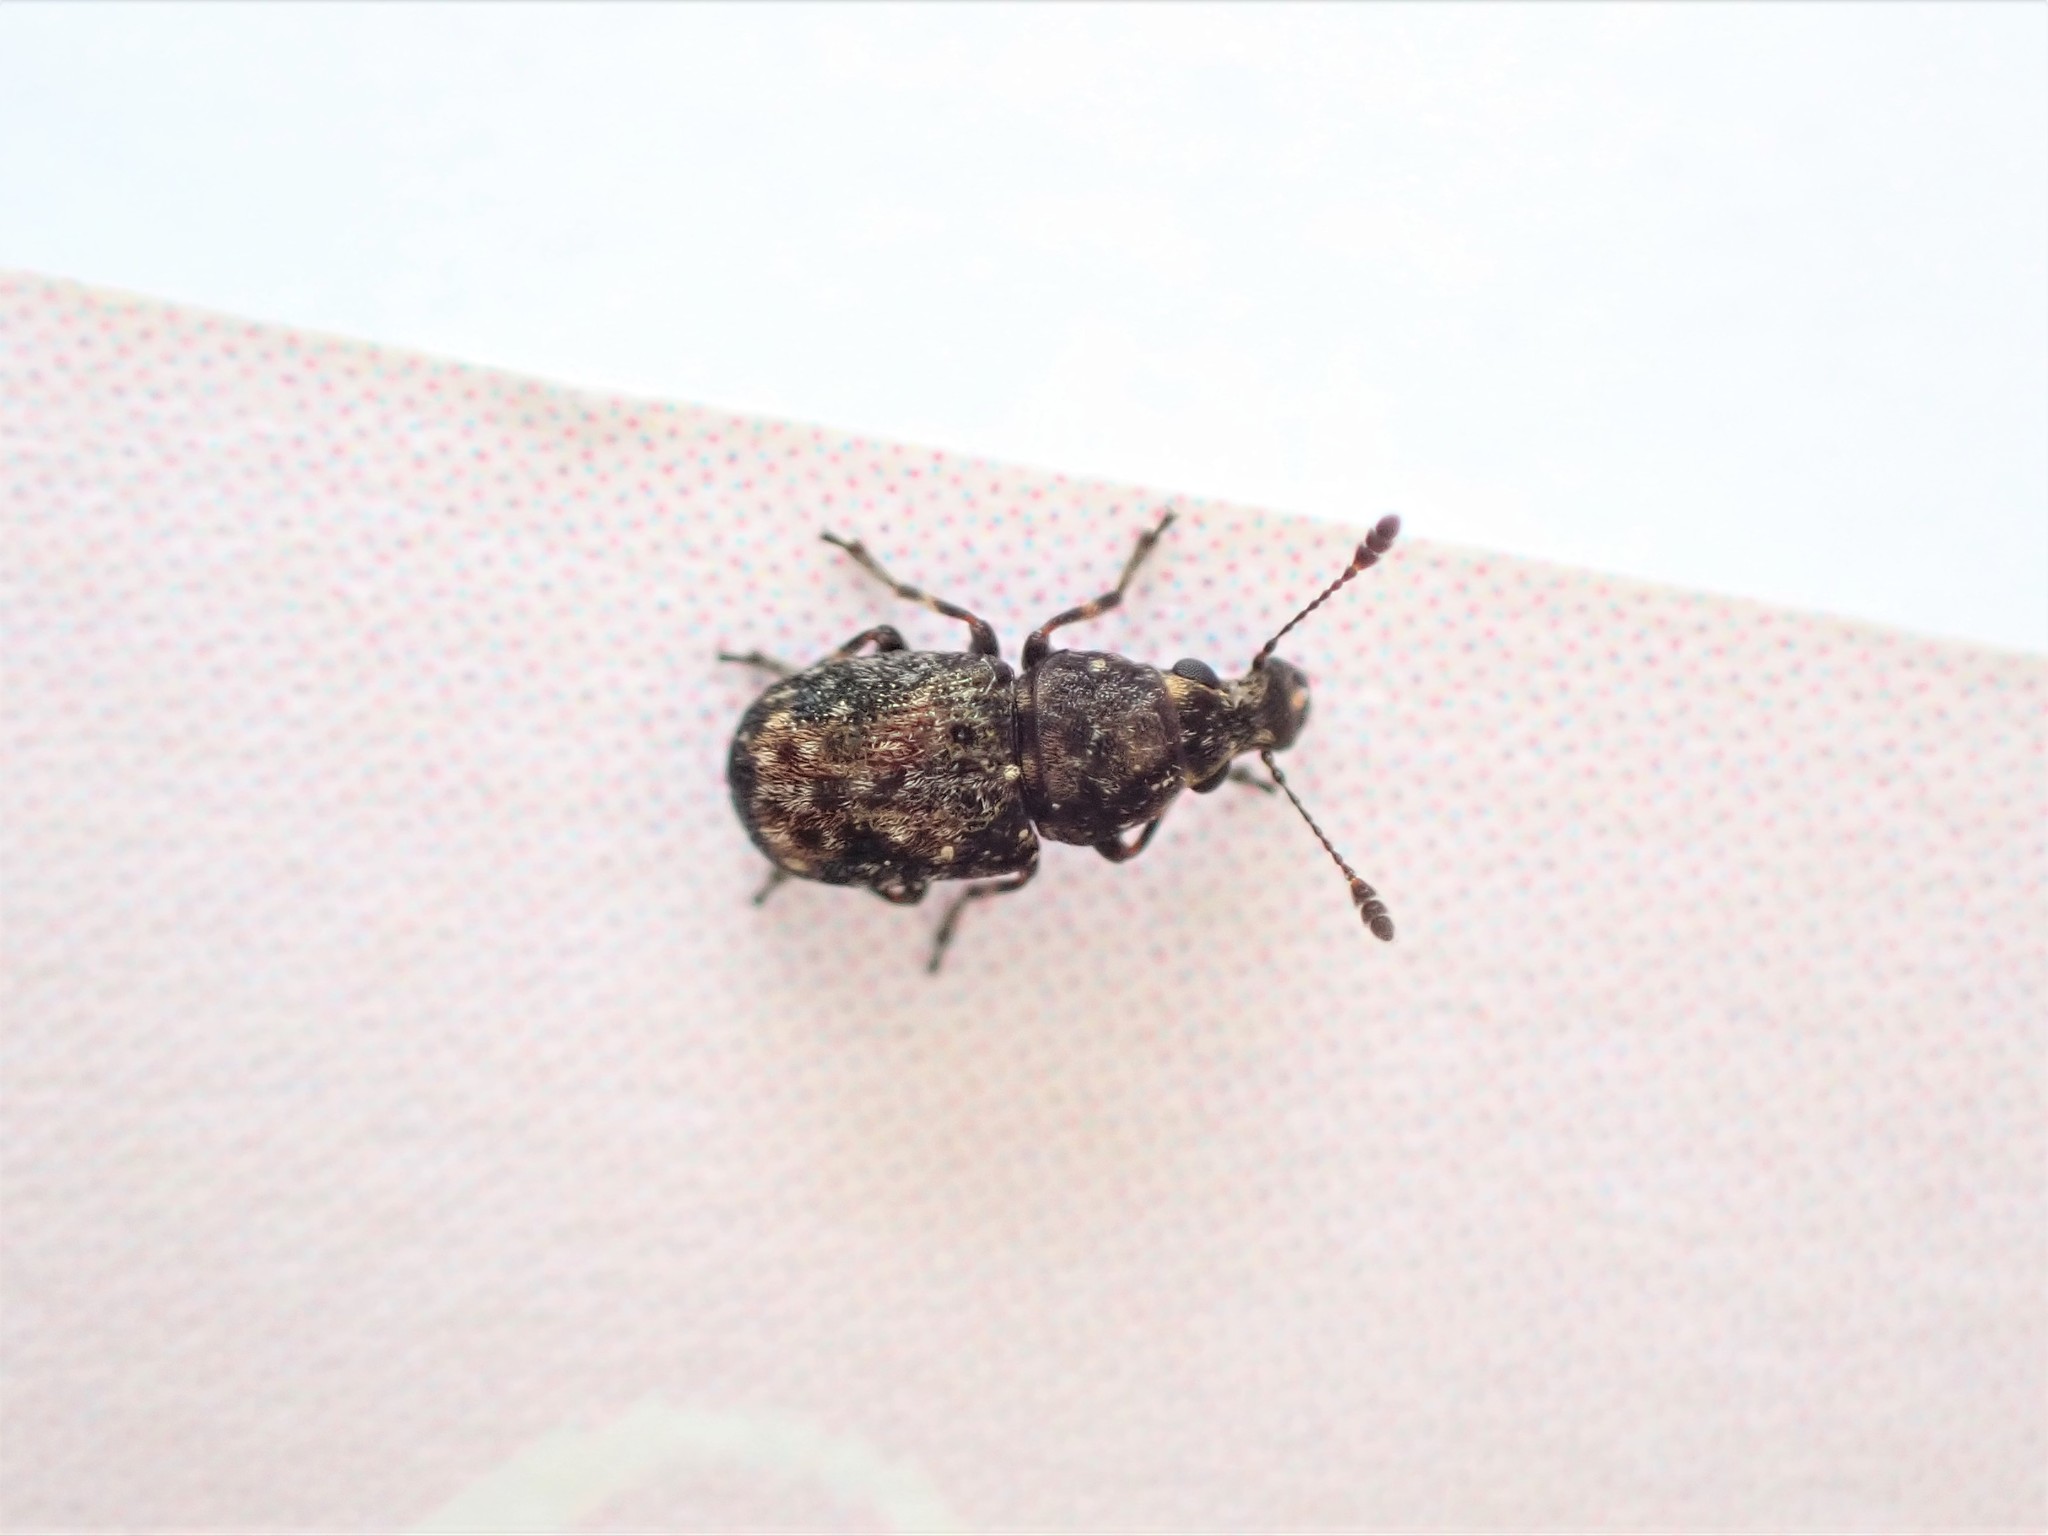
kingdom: Animalia
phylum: Arthropoda
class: Insecta
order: Coleoptera
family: Anthribidae
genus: Sharpius
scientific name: Sharpius
